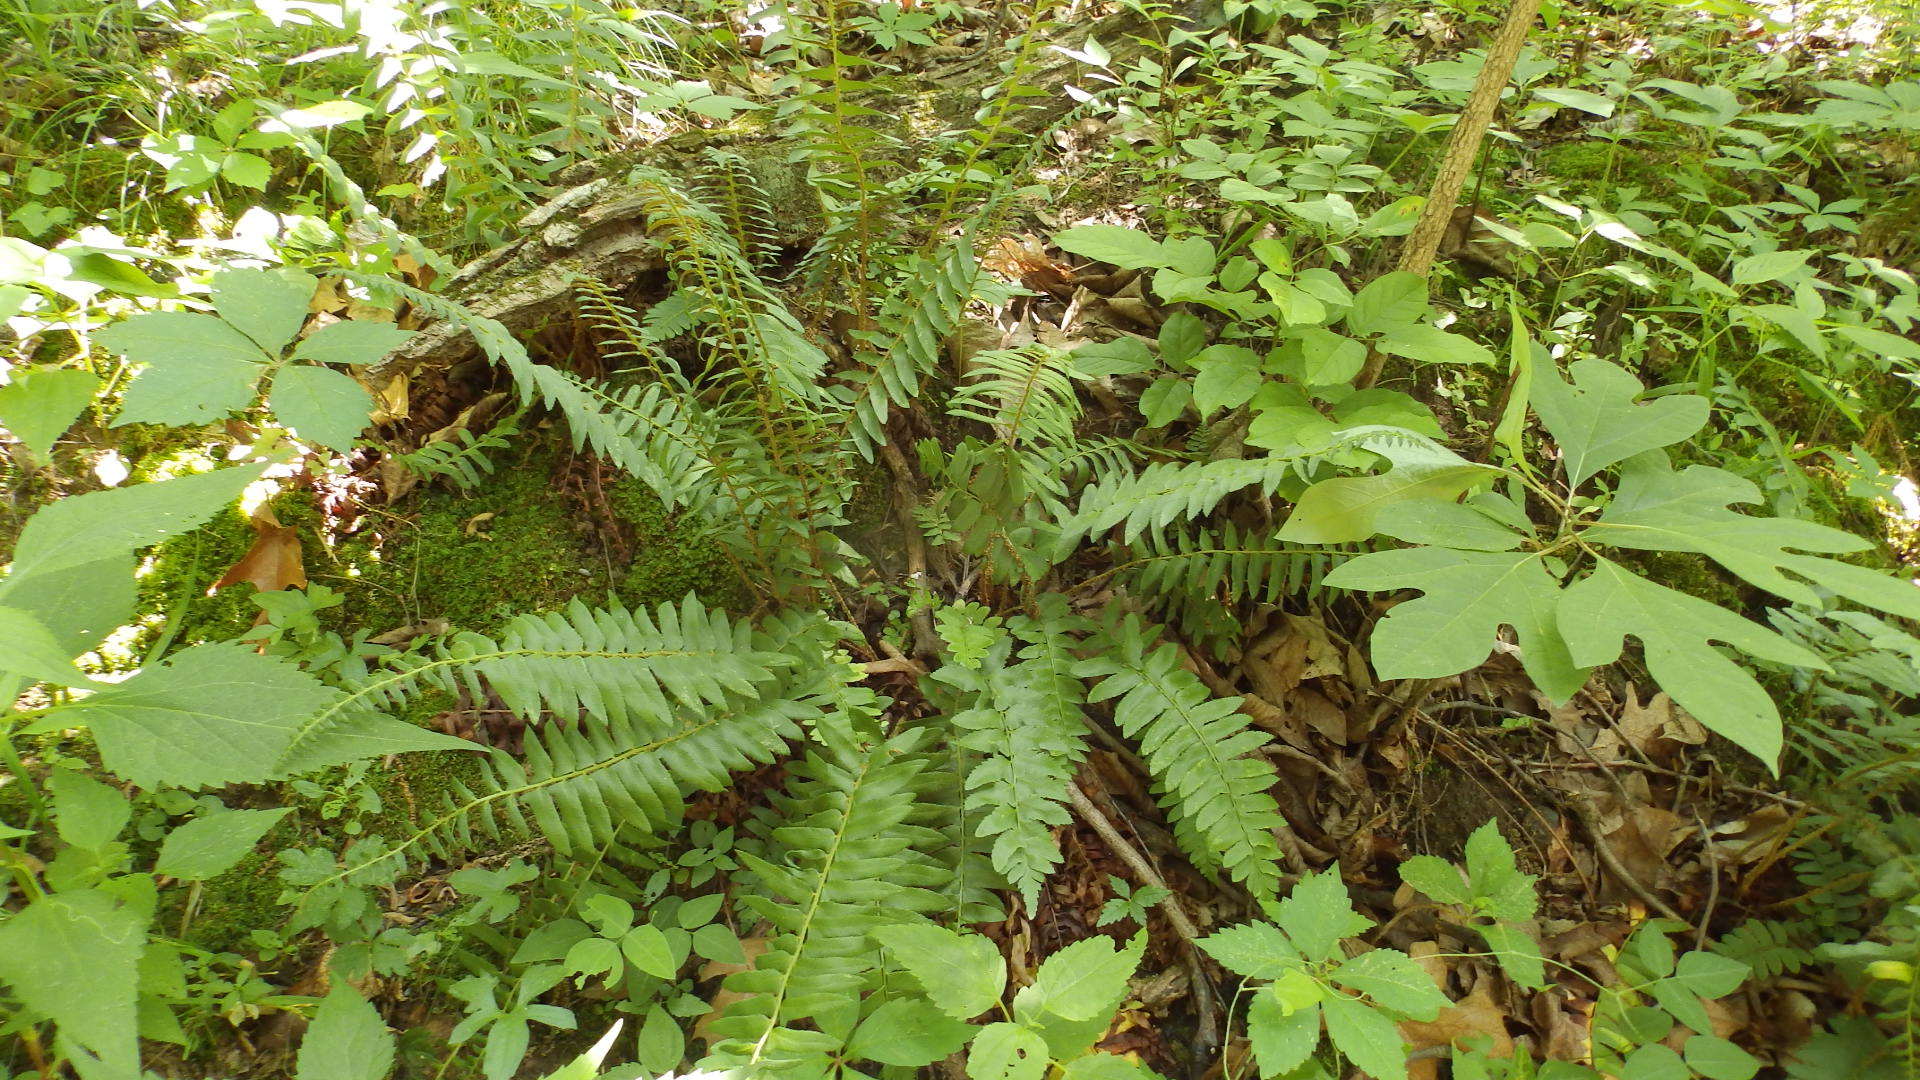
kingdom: Plantae
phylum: Tracheophyta
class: Polypodiopsida
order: Polypodiales
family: Dryopteridaceae
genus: Polystichum
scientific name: Polystichum acrostichoides
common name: Christmas fern
